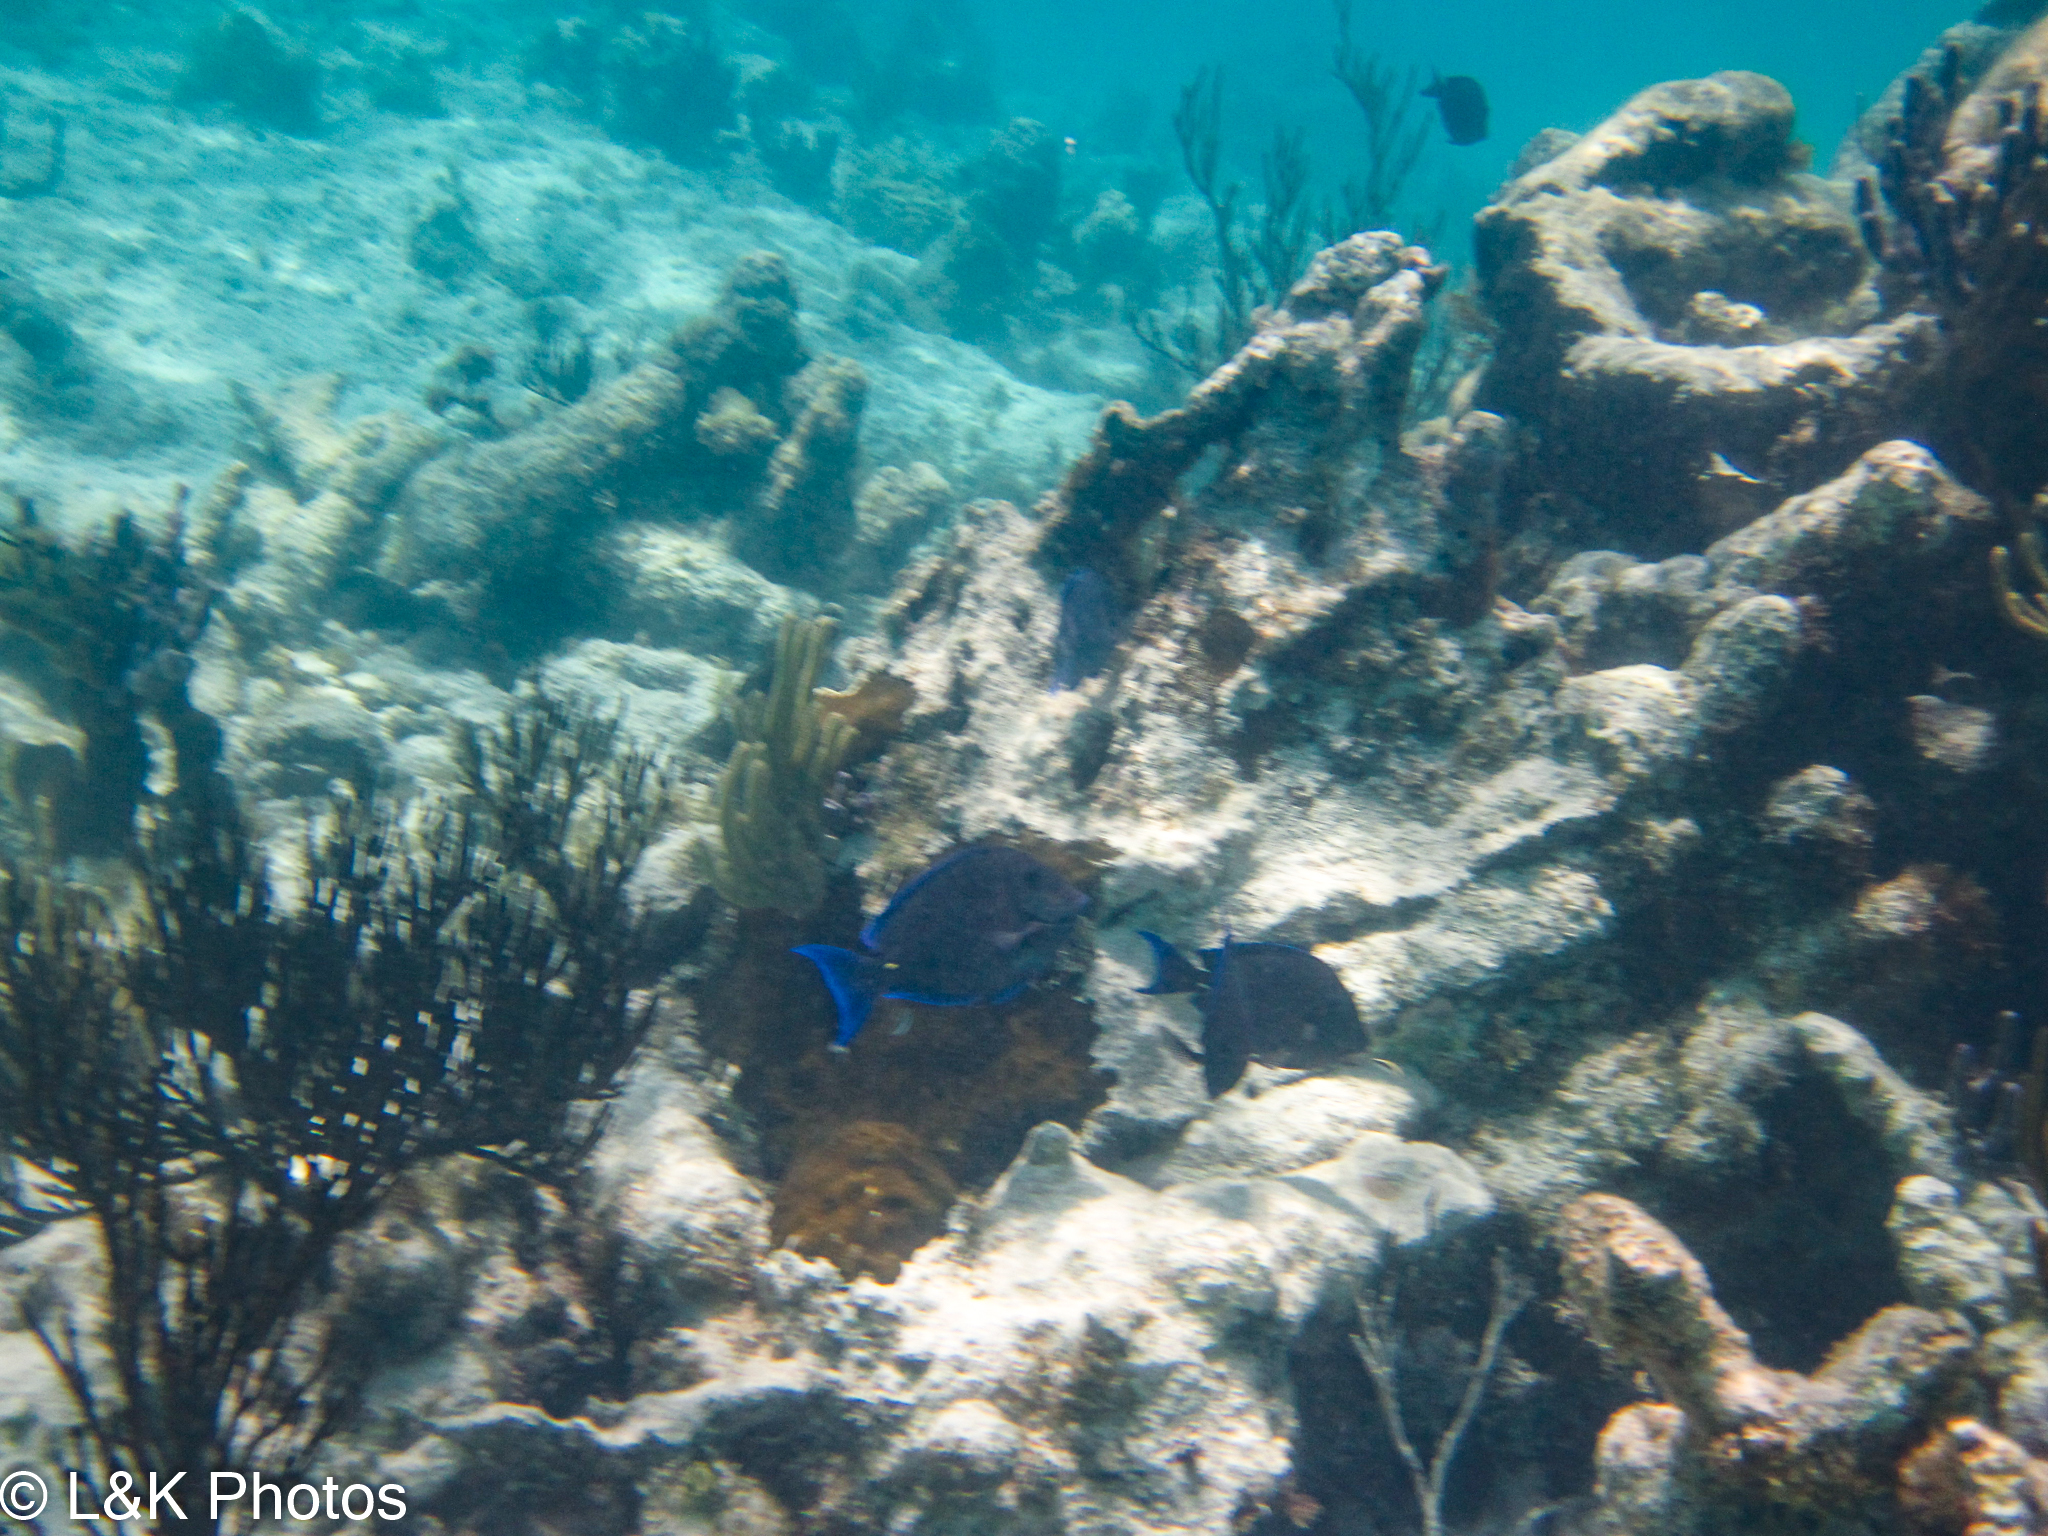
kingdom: Animalia
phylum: Chordata
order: Perciformes
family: Acanthuridae
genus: Acanthurus
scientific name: Acanthurus coeruleus
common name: Blue tang
